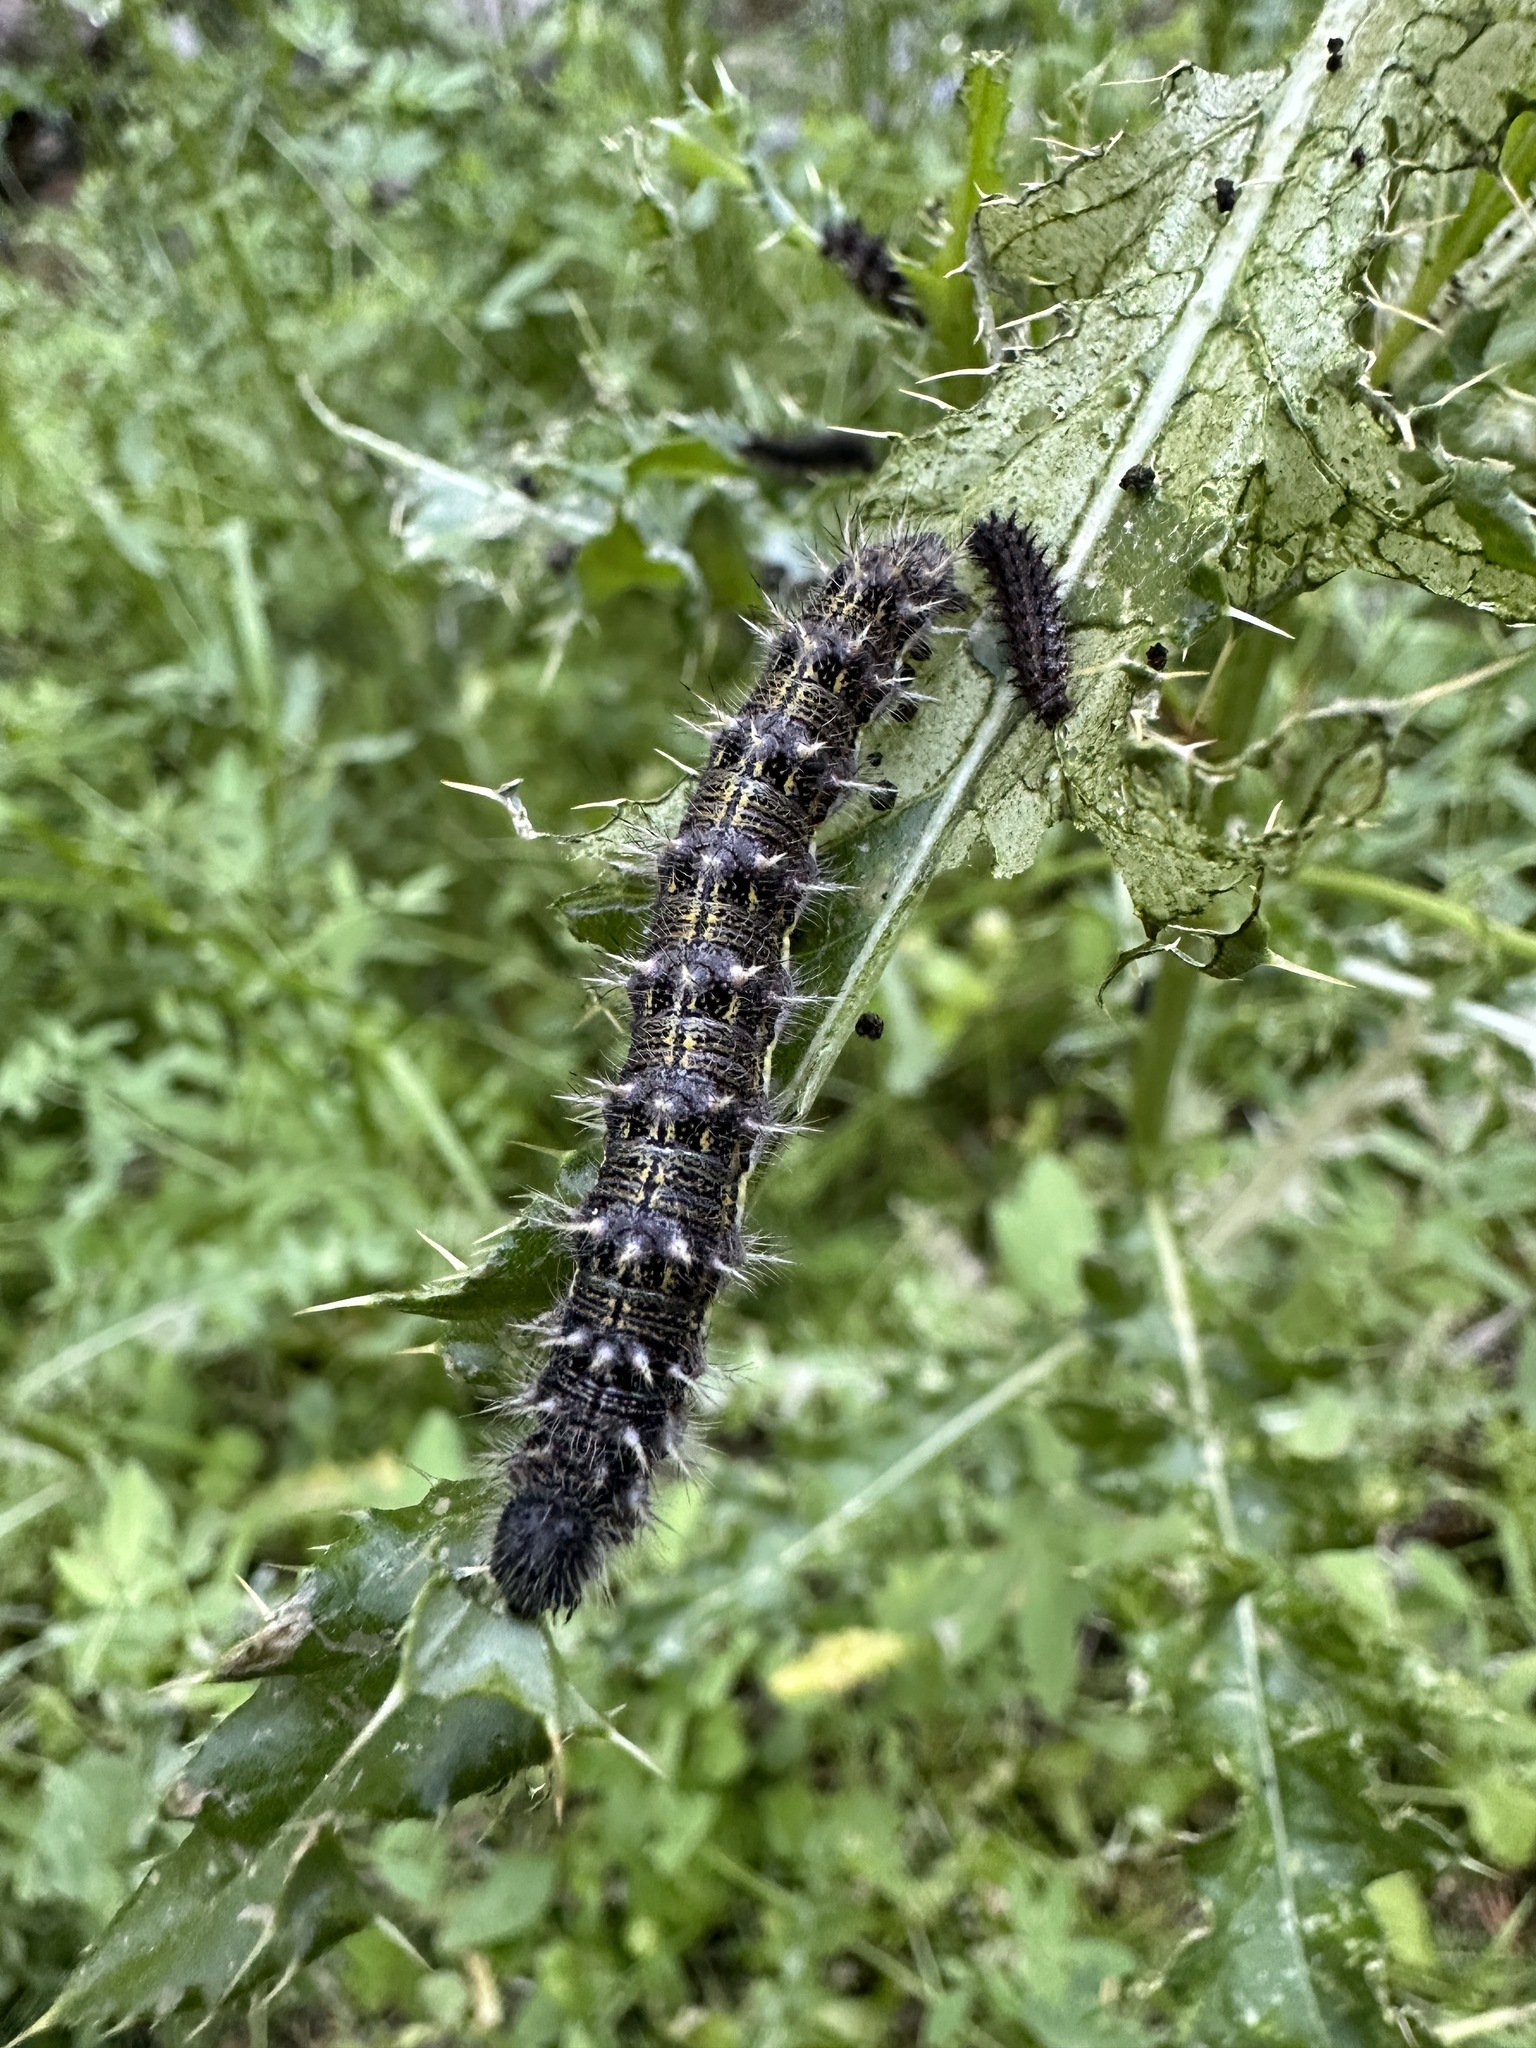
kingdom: Animalia
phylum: Arthropoda
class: Insecta
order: Lepidoptera
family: Nymphalidae
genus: Vanessa
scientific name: Vanessa cardui
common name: Painted lady
